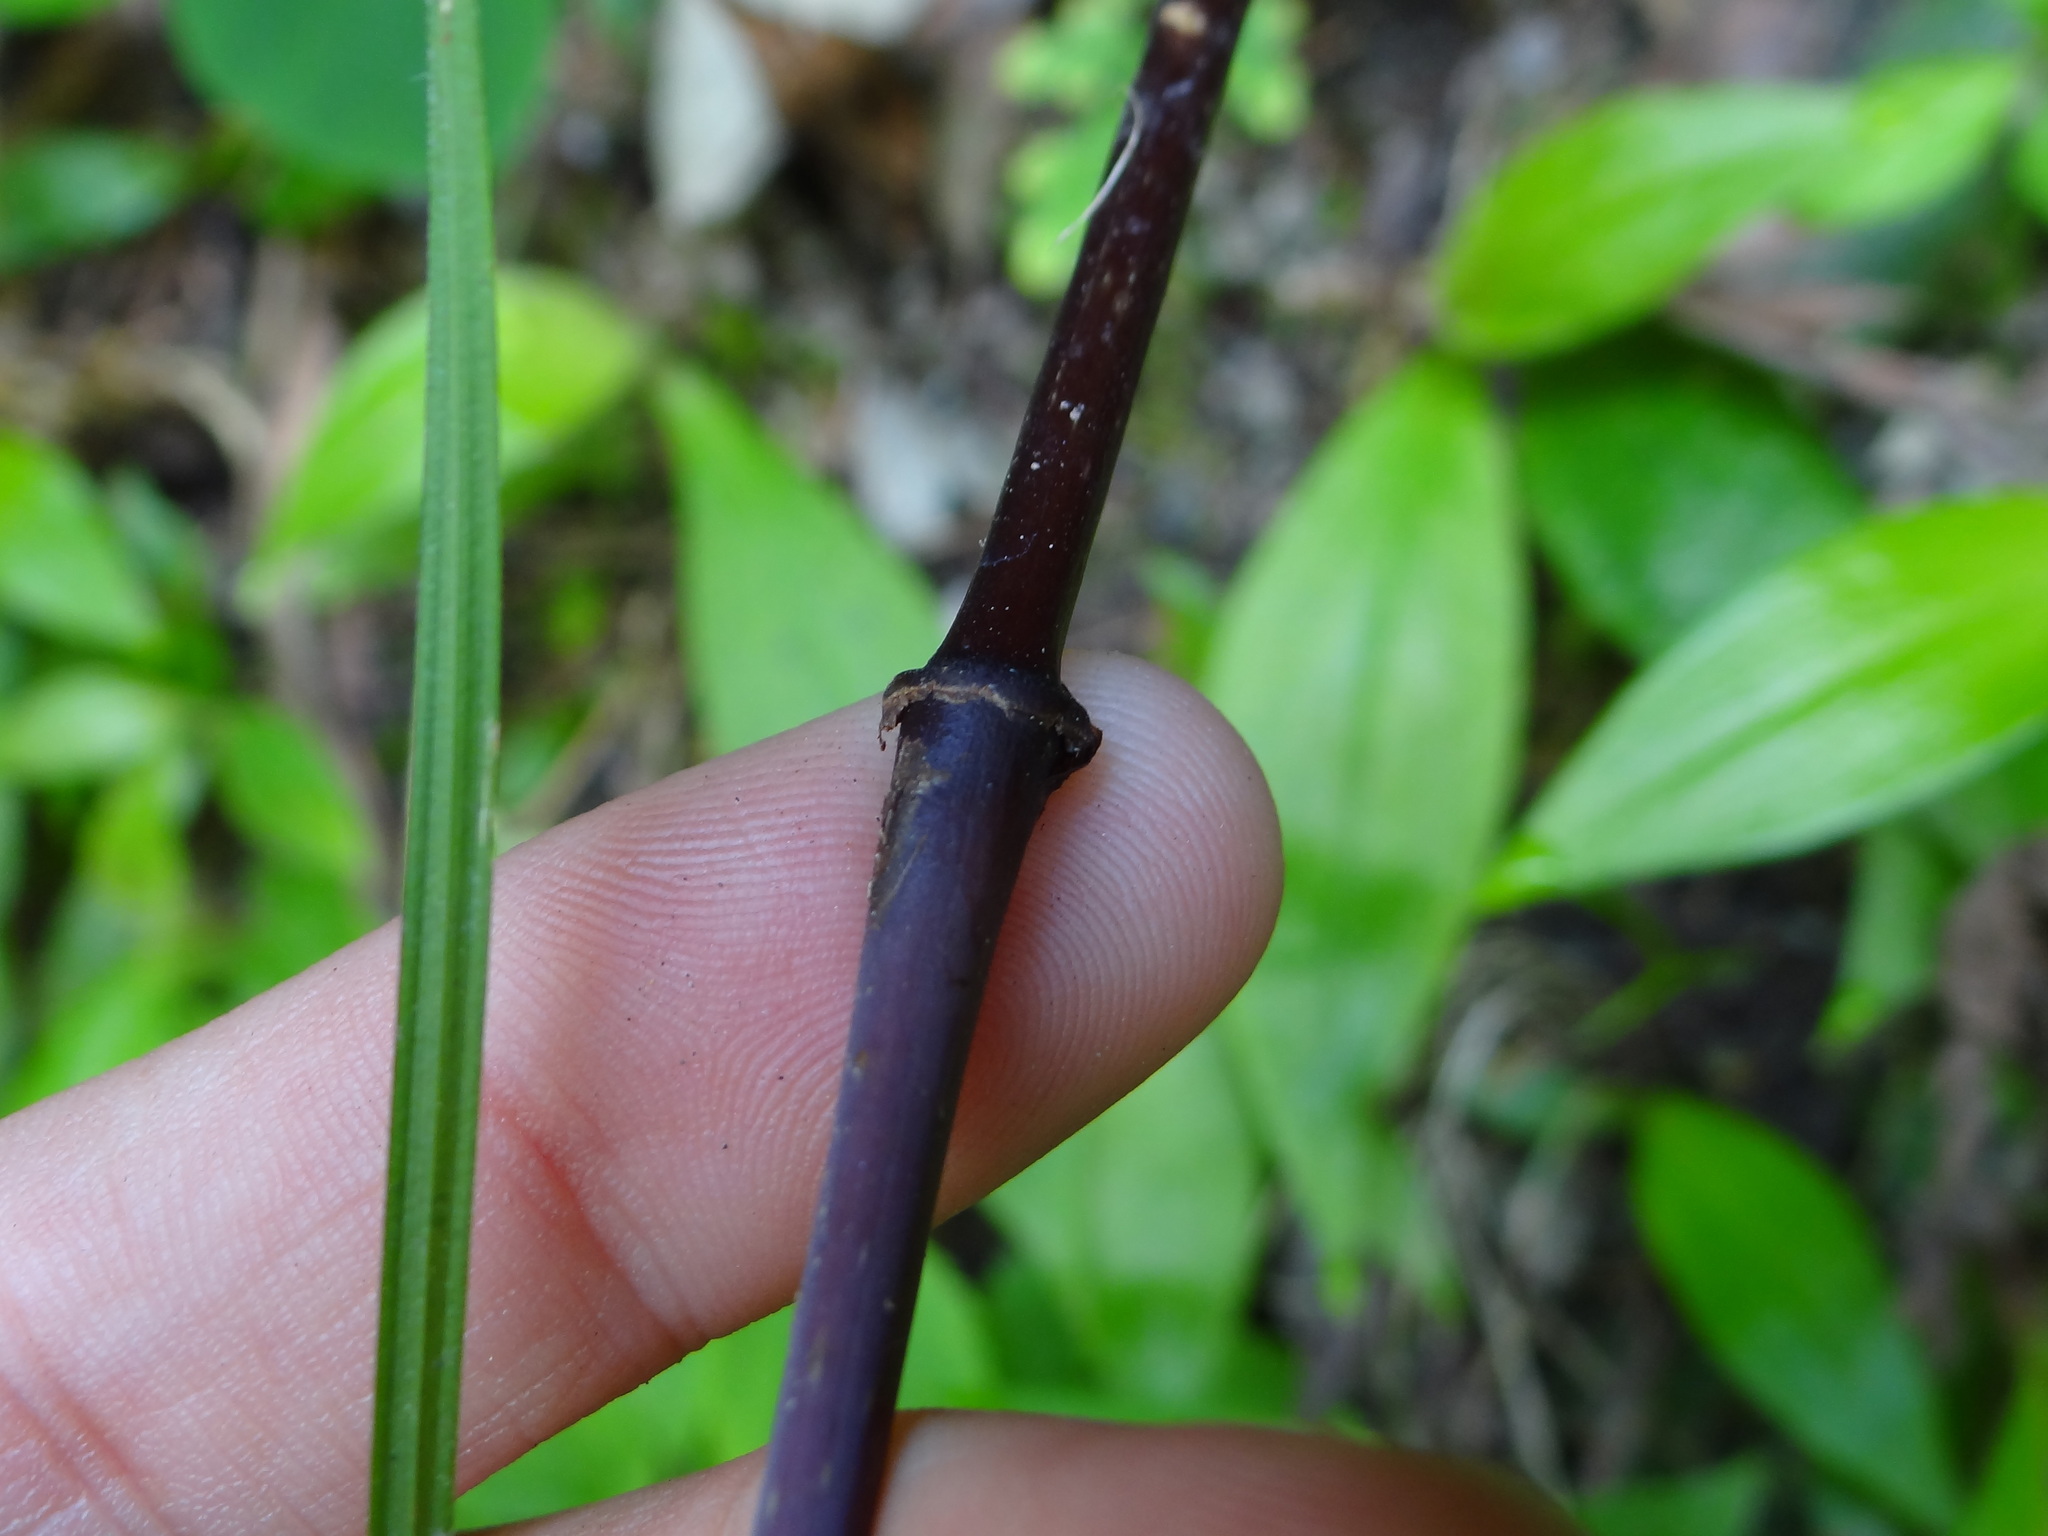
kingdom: Plantae
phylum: Tracheophyta
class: Magnoliopsida
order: Chloranthales
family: Chloranthaceae
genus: Chloranthus
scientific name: Chloranthus oldhamii
